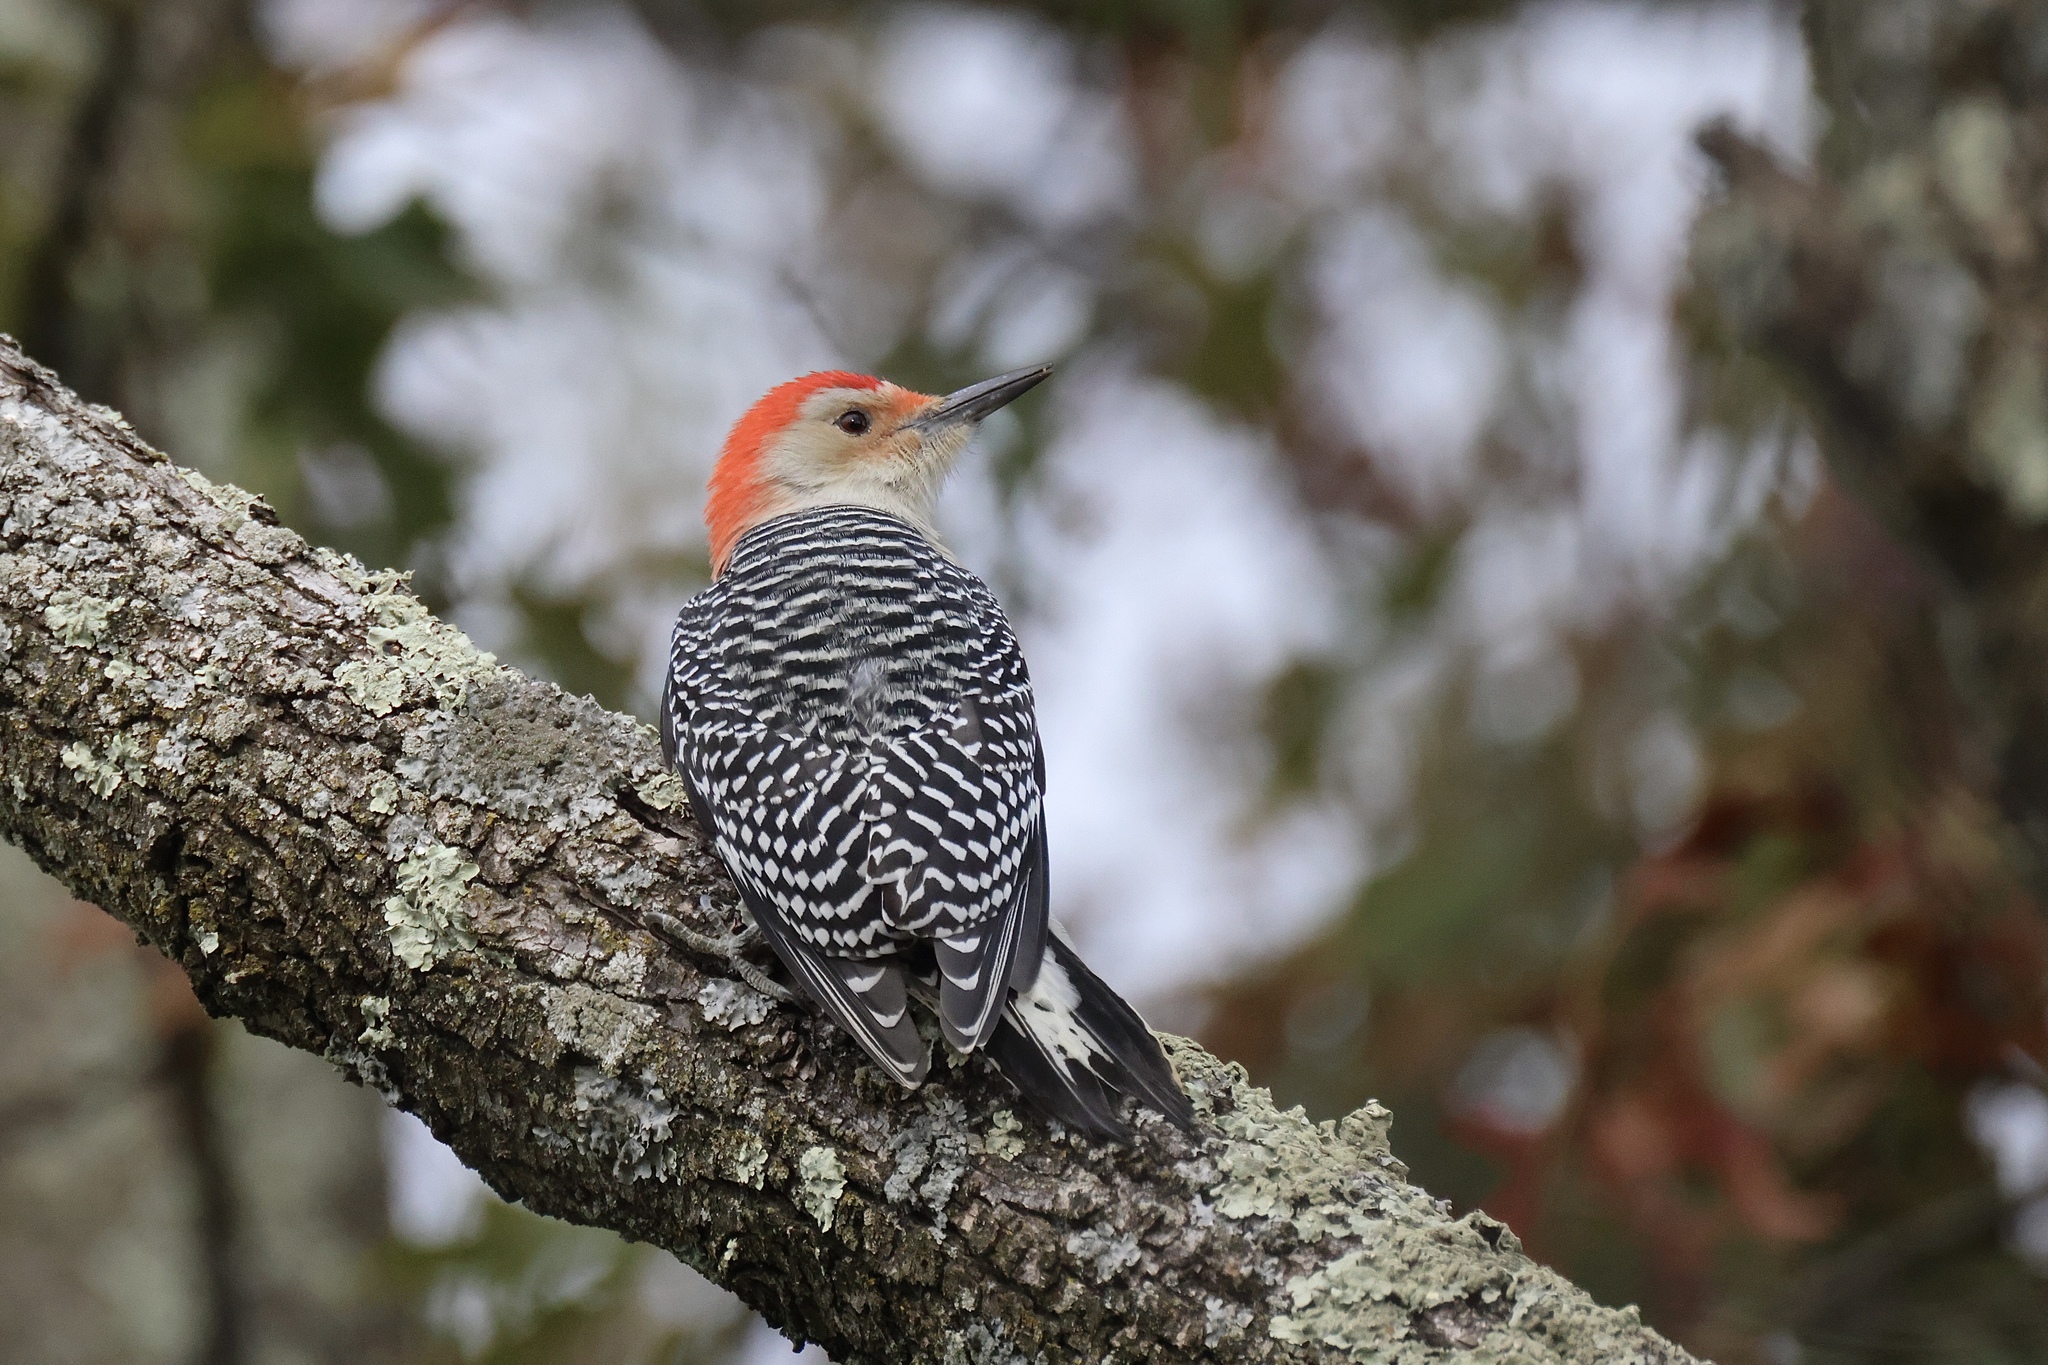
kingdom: Animalia
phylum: Chordata
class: Aves
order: Piciformes
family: Picidae
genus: Melanerpes
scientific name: Melanerpes carolinus
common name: Red-bellied woodpecker
